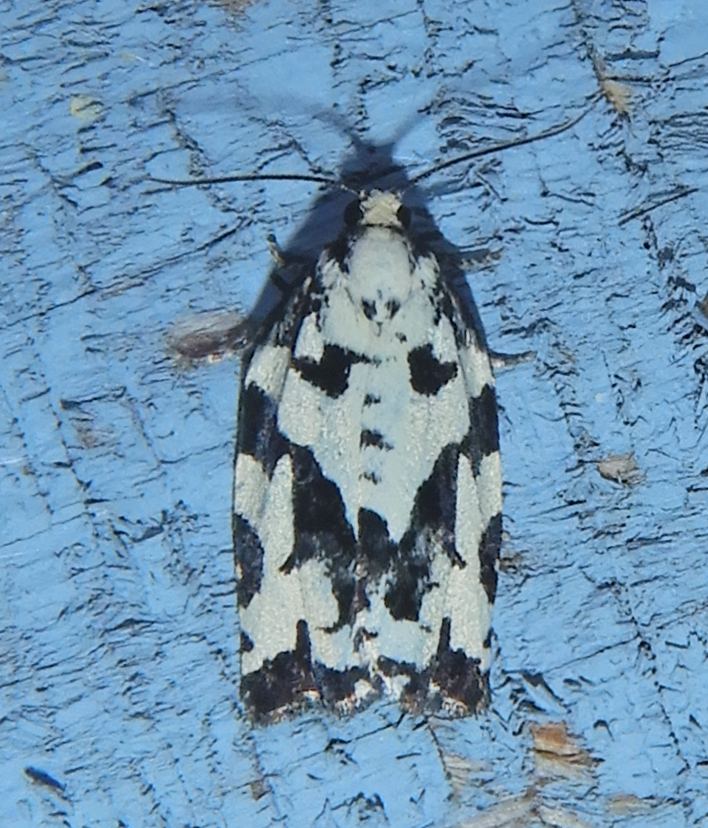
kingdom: Animalia
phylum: Arthropoda
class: Insecta
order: Lepidoptera
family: Tortricidae
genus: Archips
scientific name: Archips dissitana
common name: Boldly-marked archips moth
